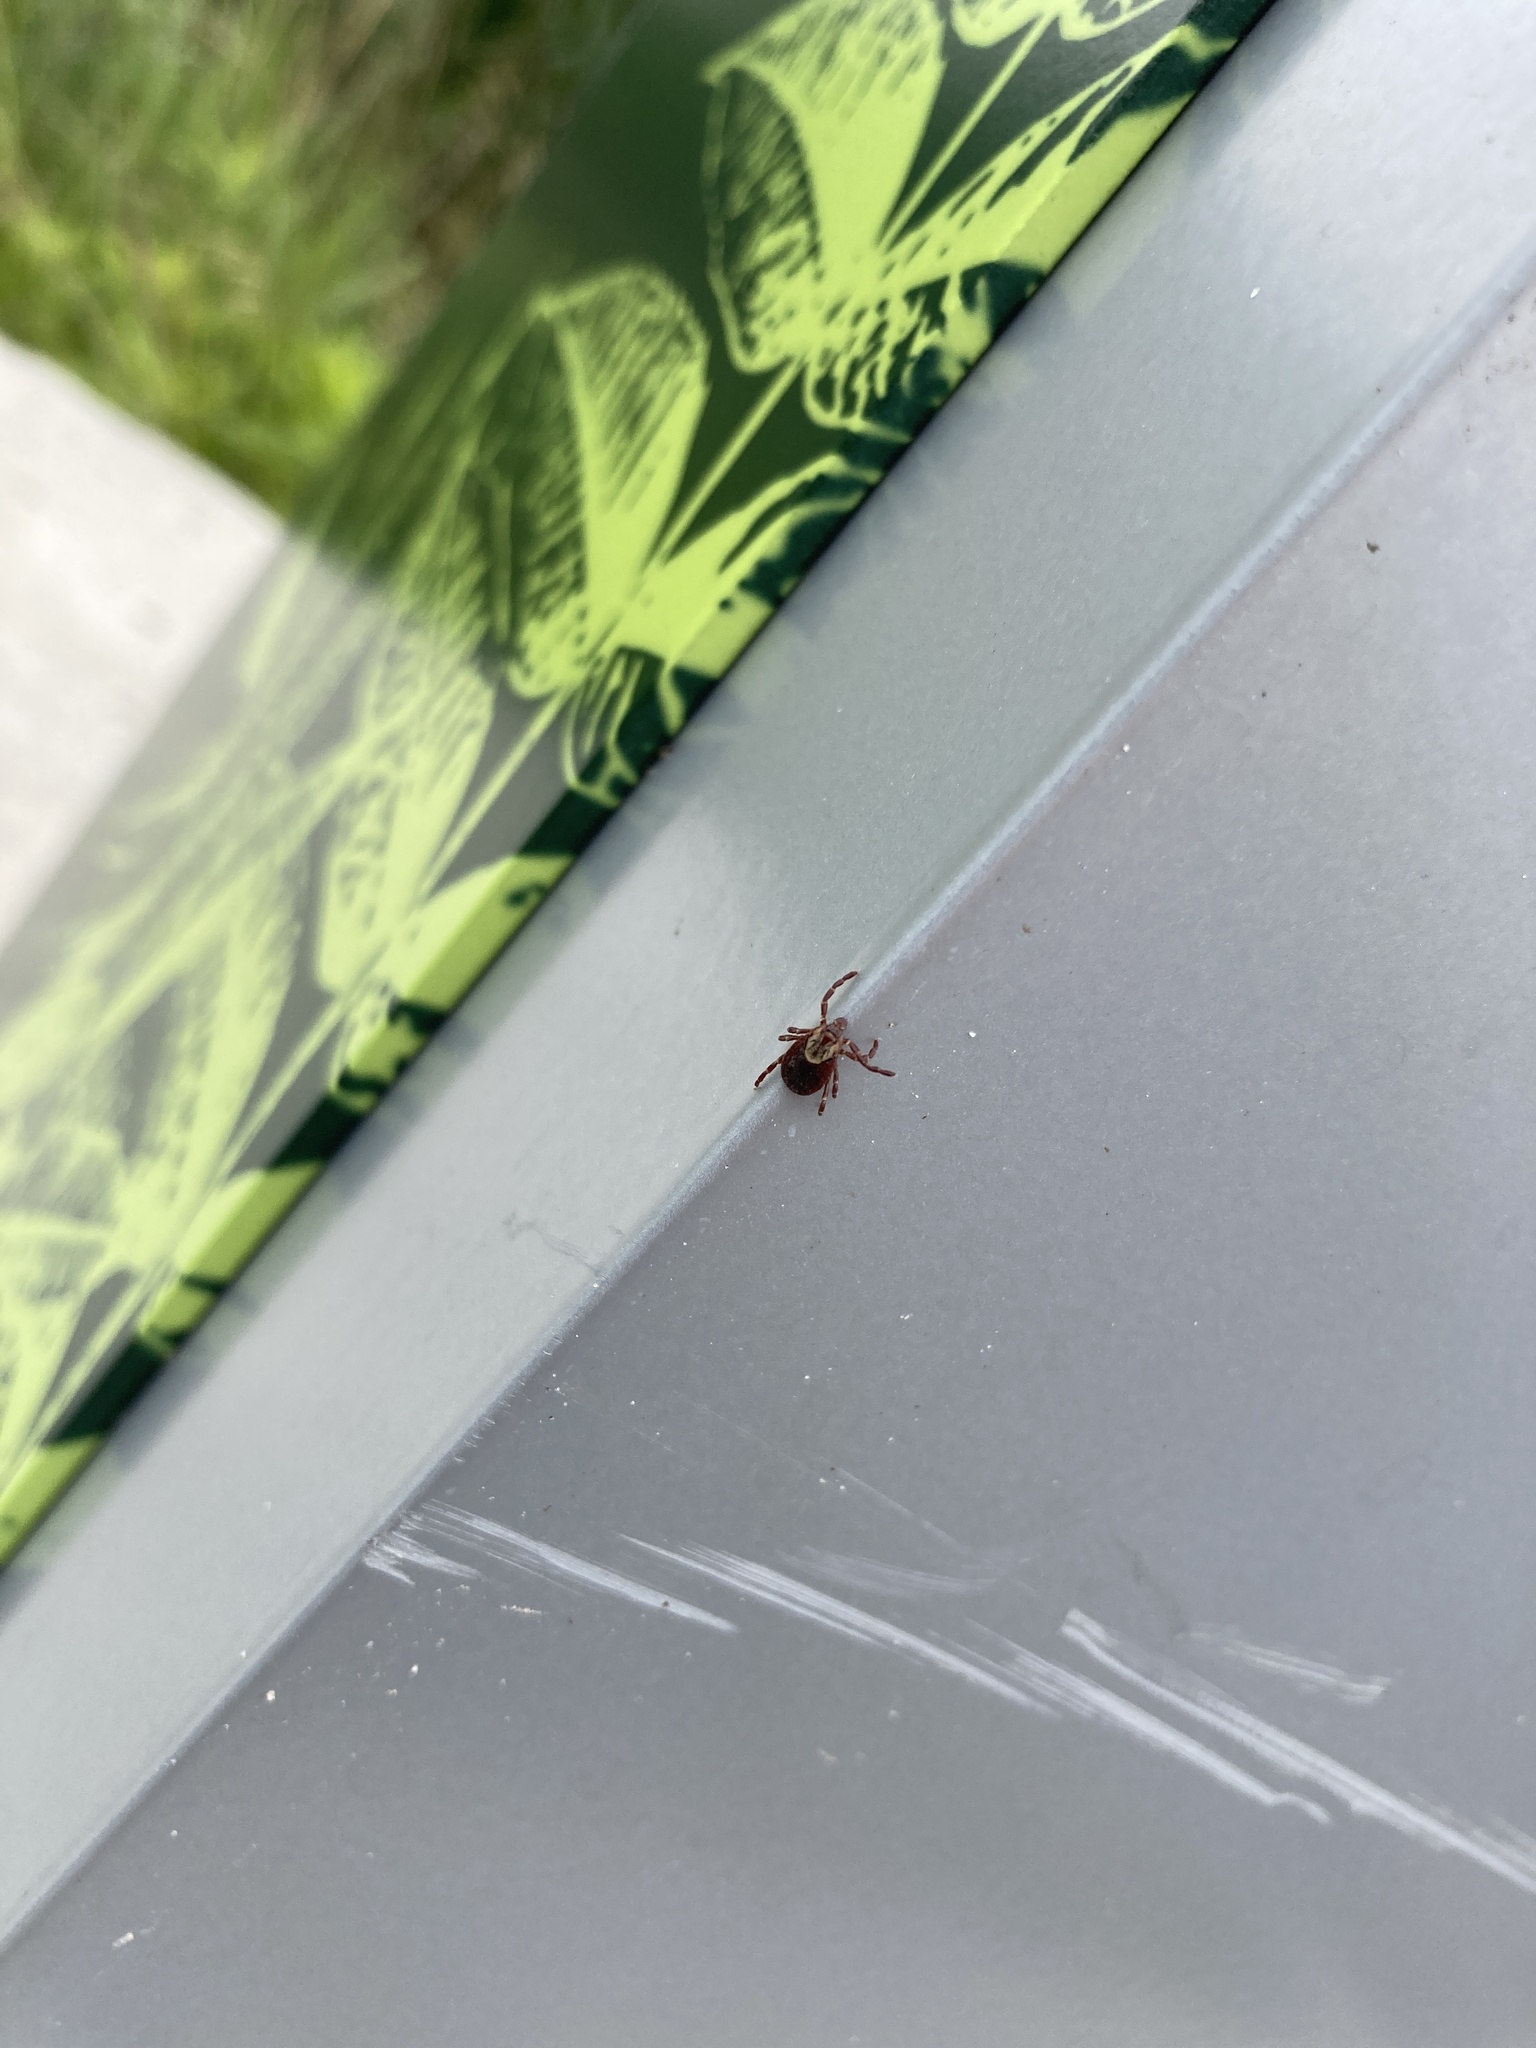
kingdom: Animalia
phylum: Arthropoda
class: Arachnida
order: Ixodida
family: Ixodidae
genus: Dermacentor
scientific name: Dermacentor variabilis
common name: American dog tick
